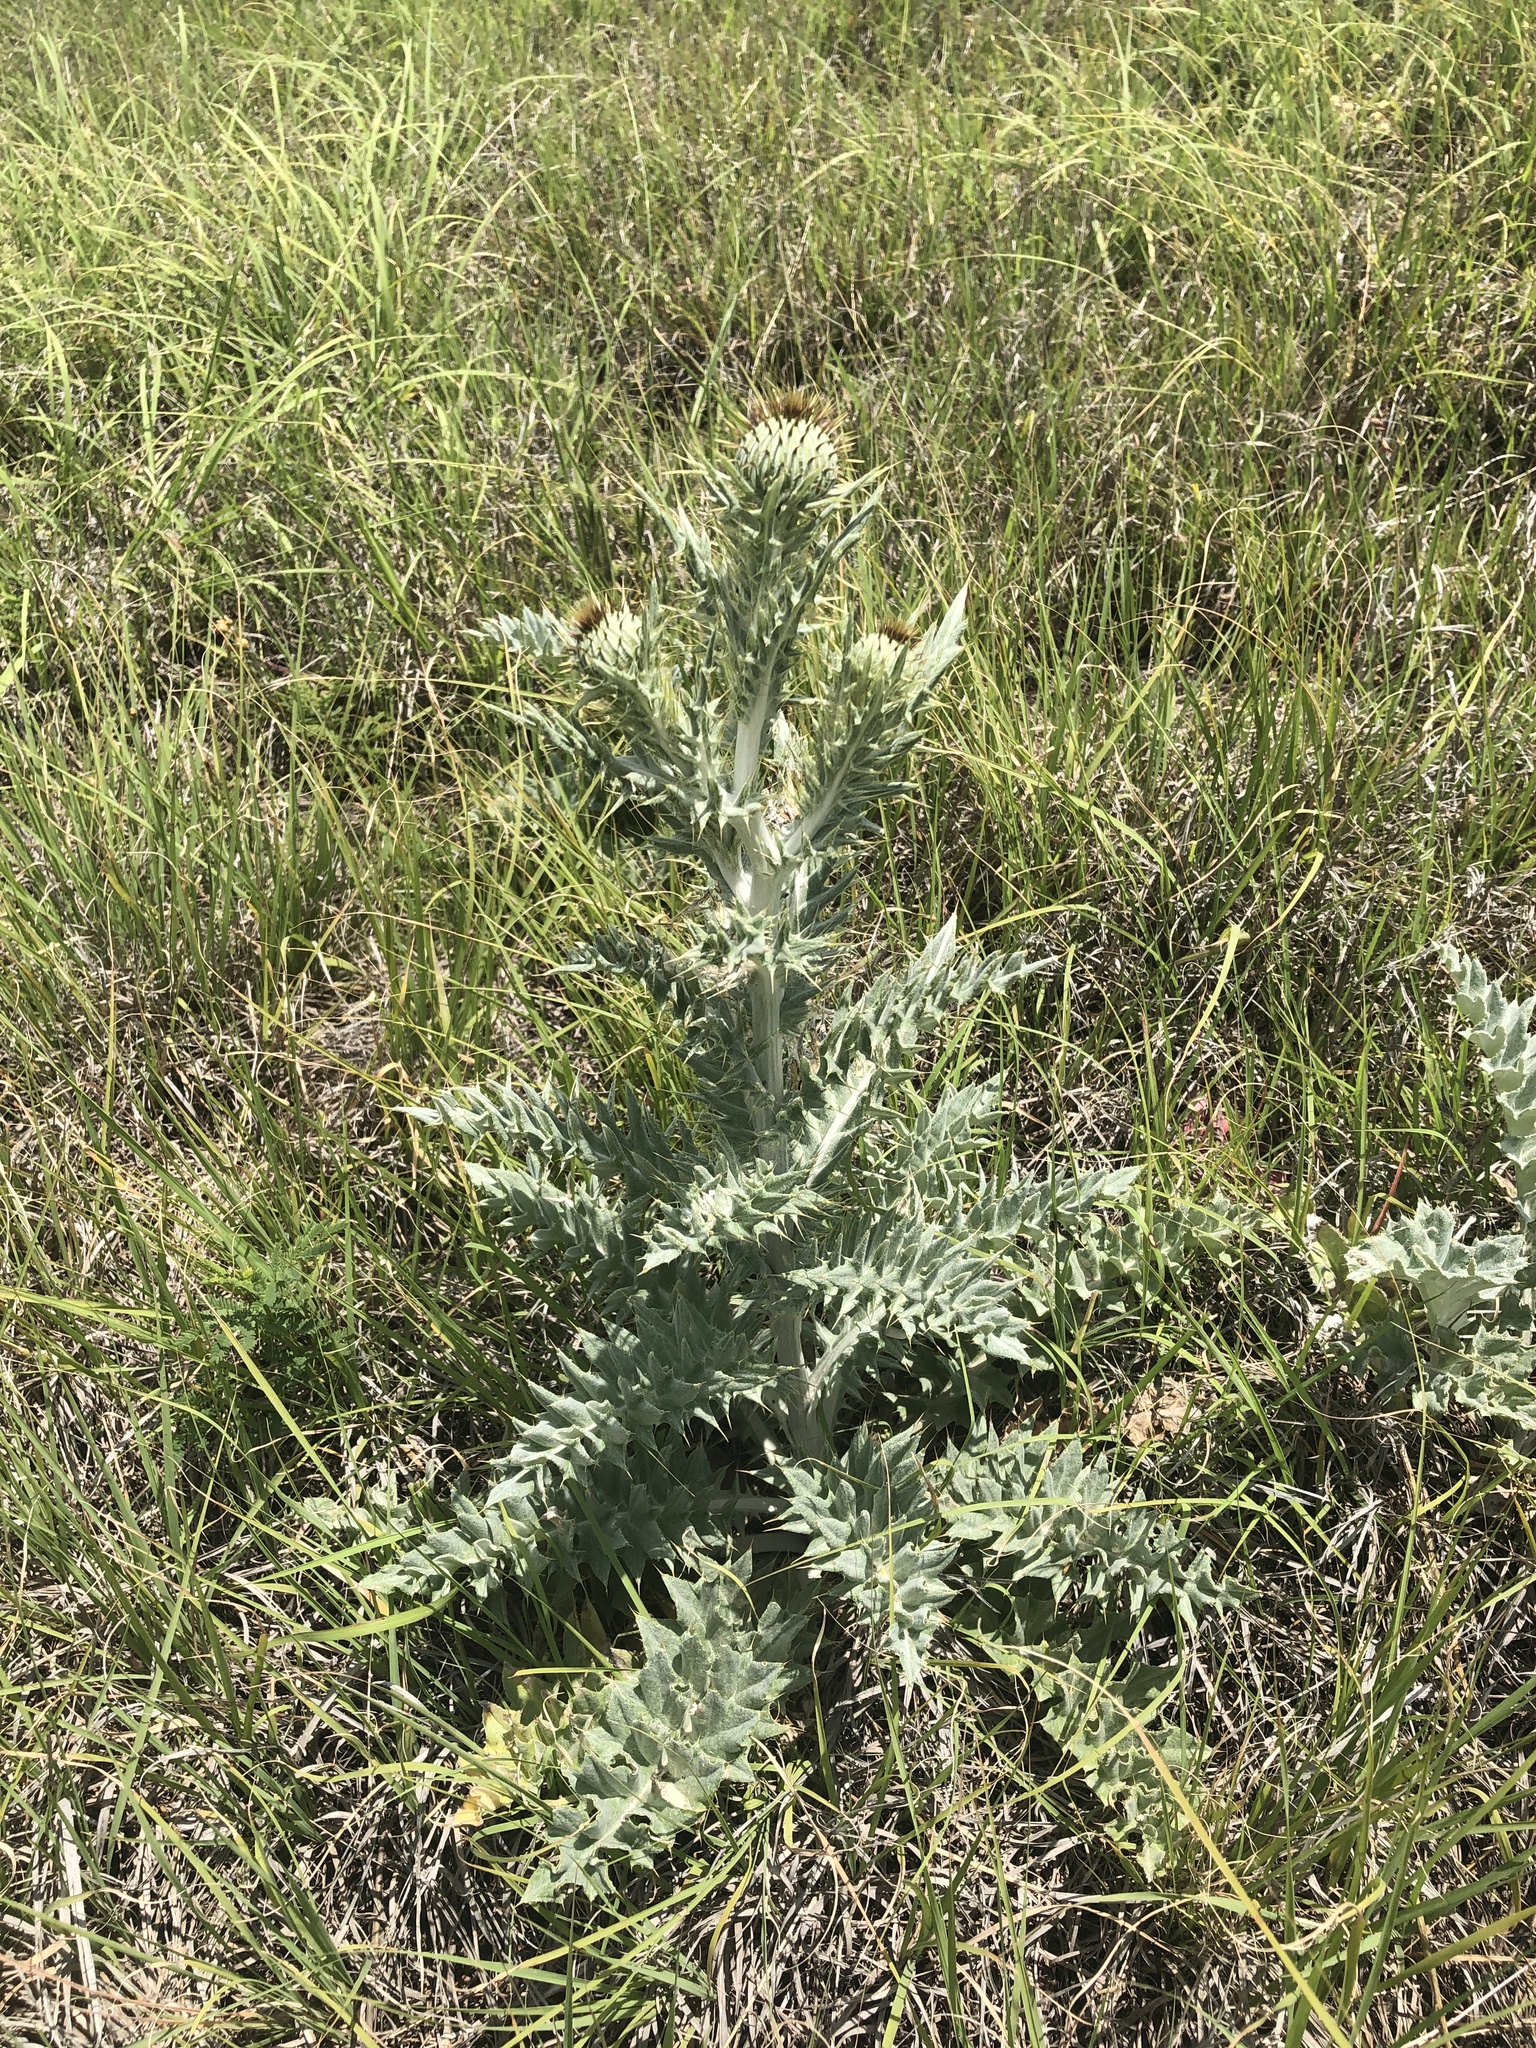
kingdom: Plantae
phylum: Tracheophyta
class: Magnoliopsida
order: Asterales
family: Asteraceae
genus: Cirsium
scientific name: Cirsium undulatum
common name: Pasture thistle
